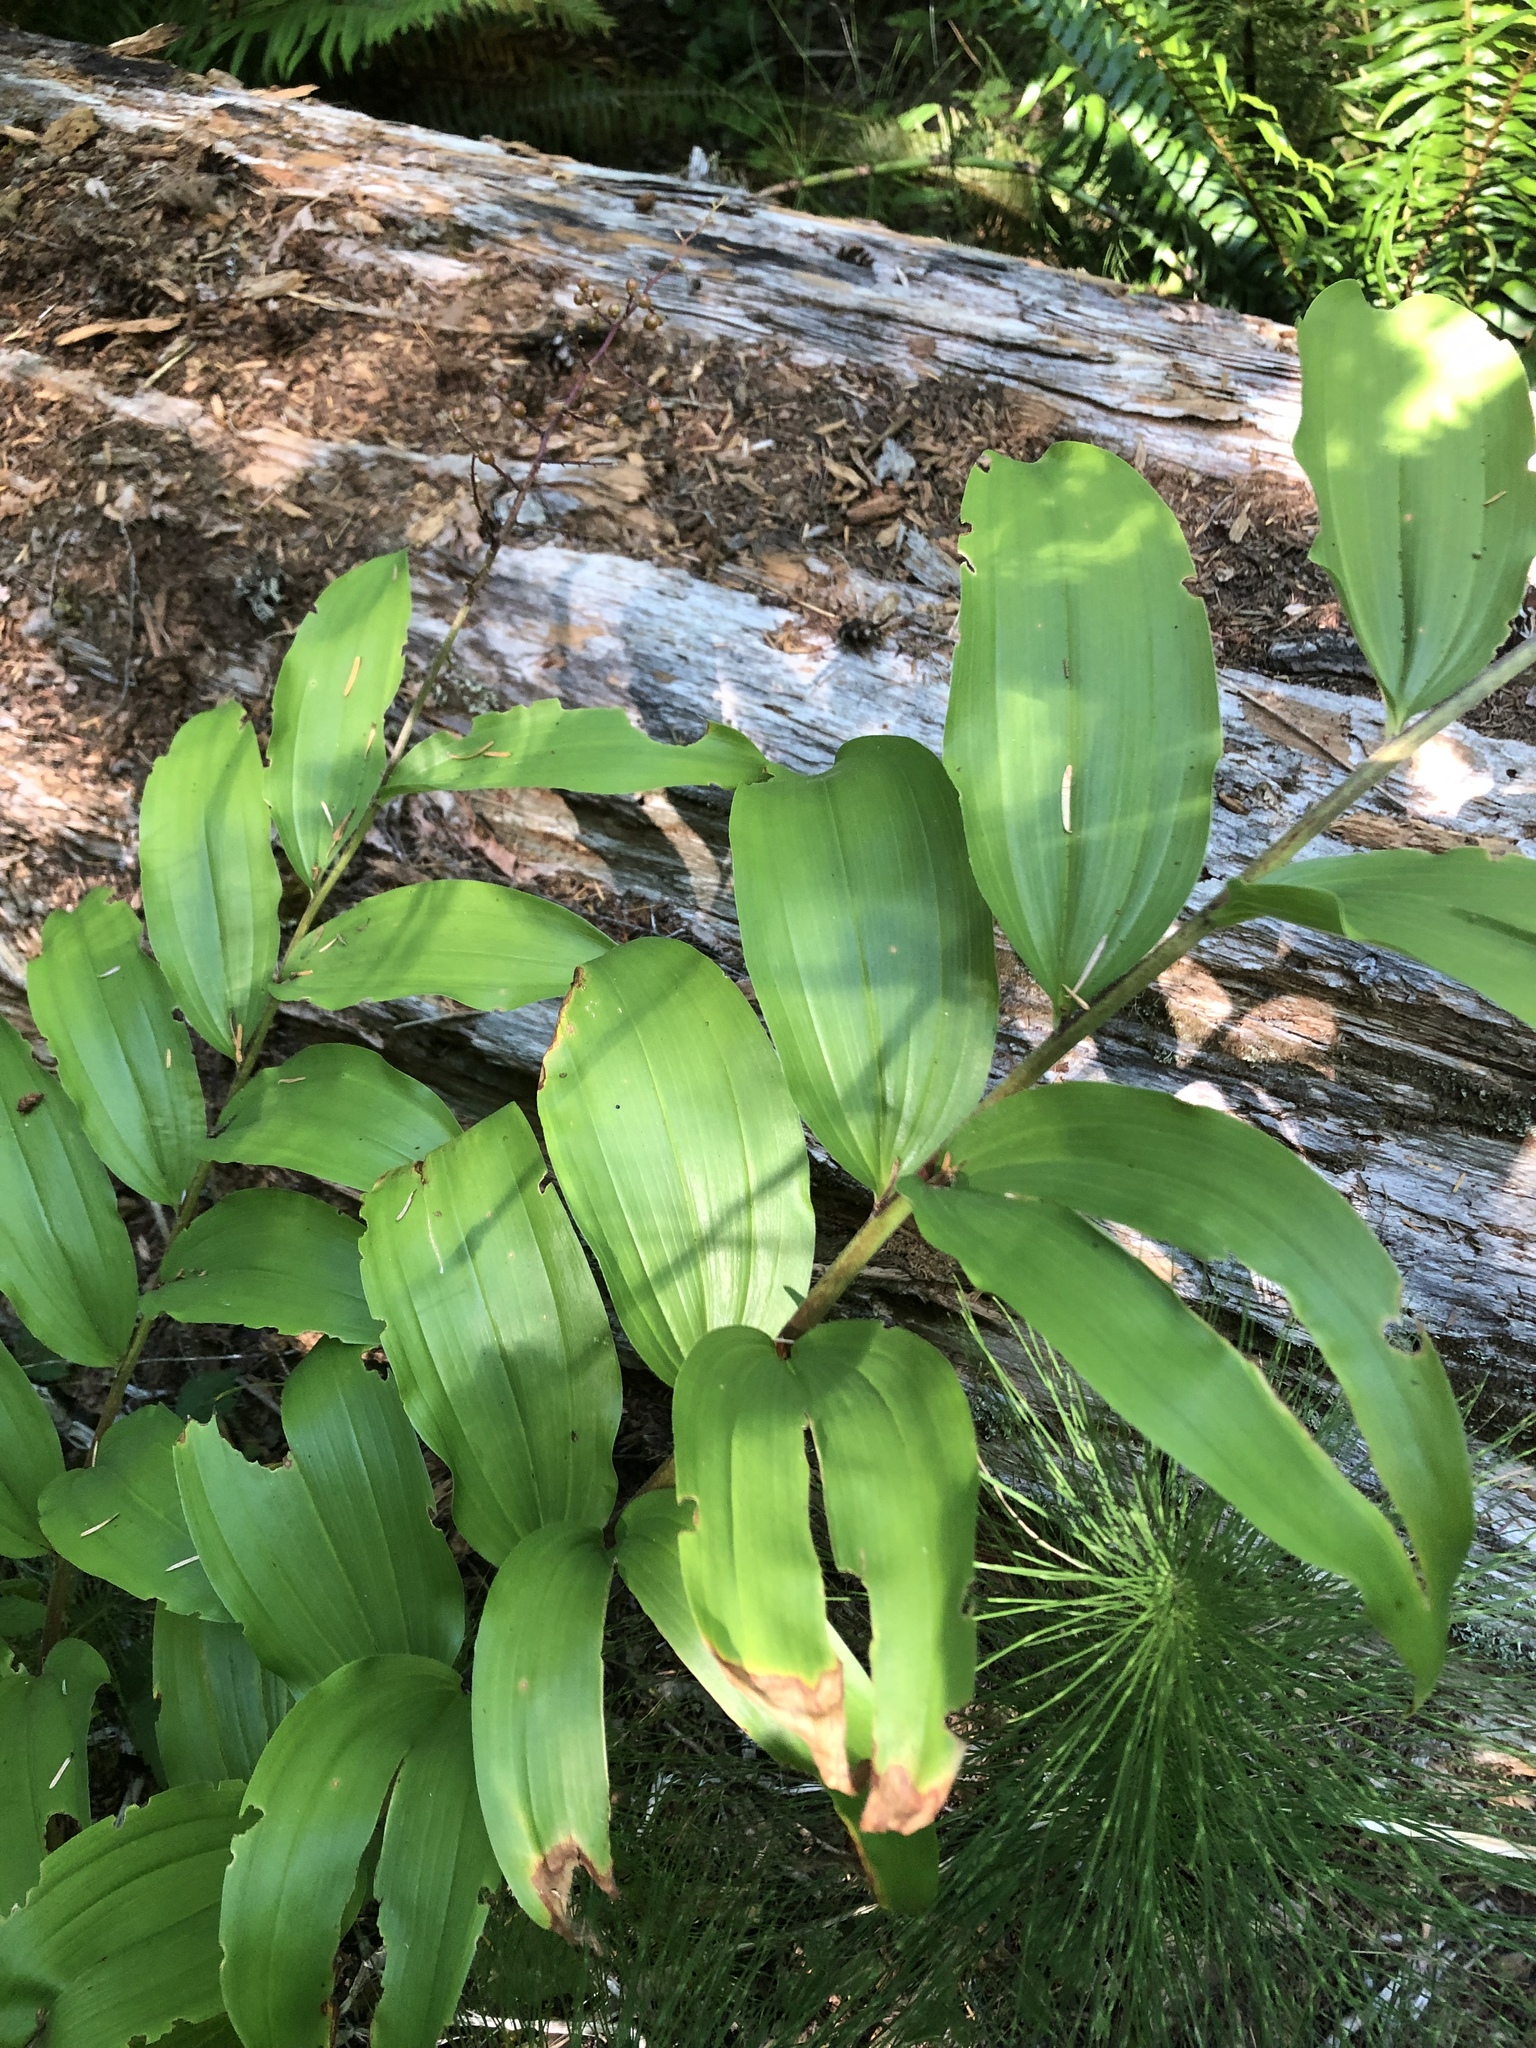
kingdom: Plantae
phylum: Tracheophyta
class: Liliopsida
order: Asparagales
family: Asparagaceae
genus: Maianthemum
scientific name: Maianthemum racemosum
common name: False spikenard
